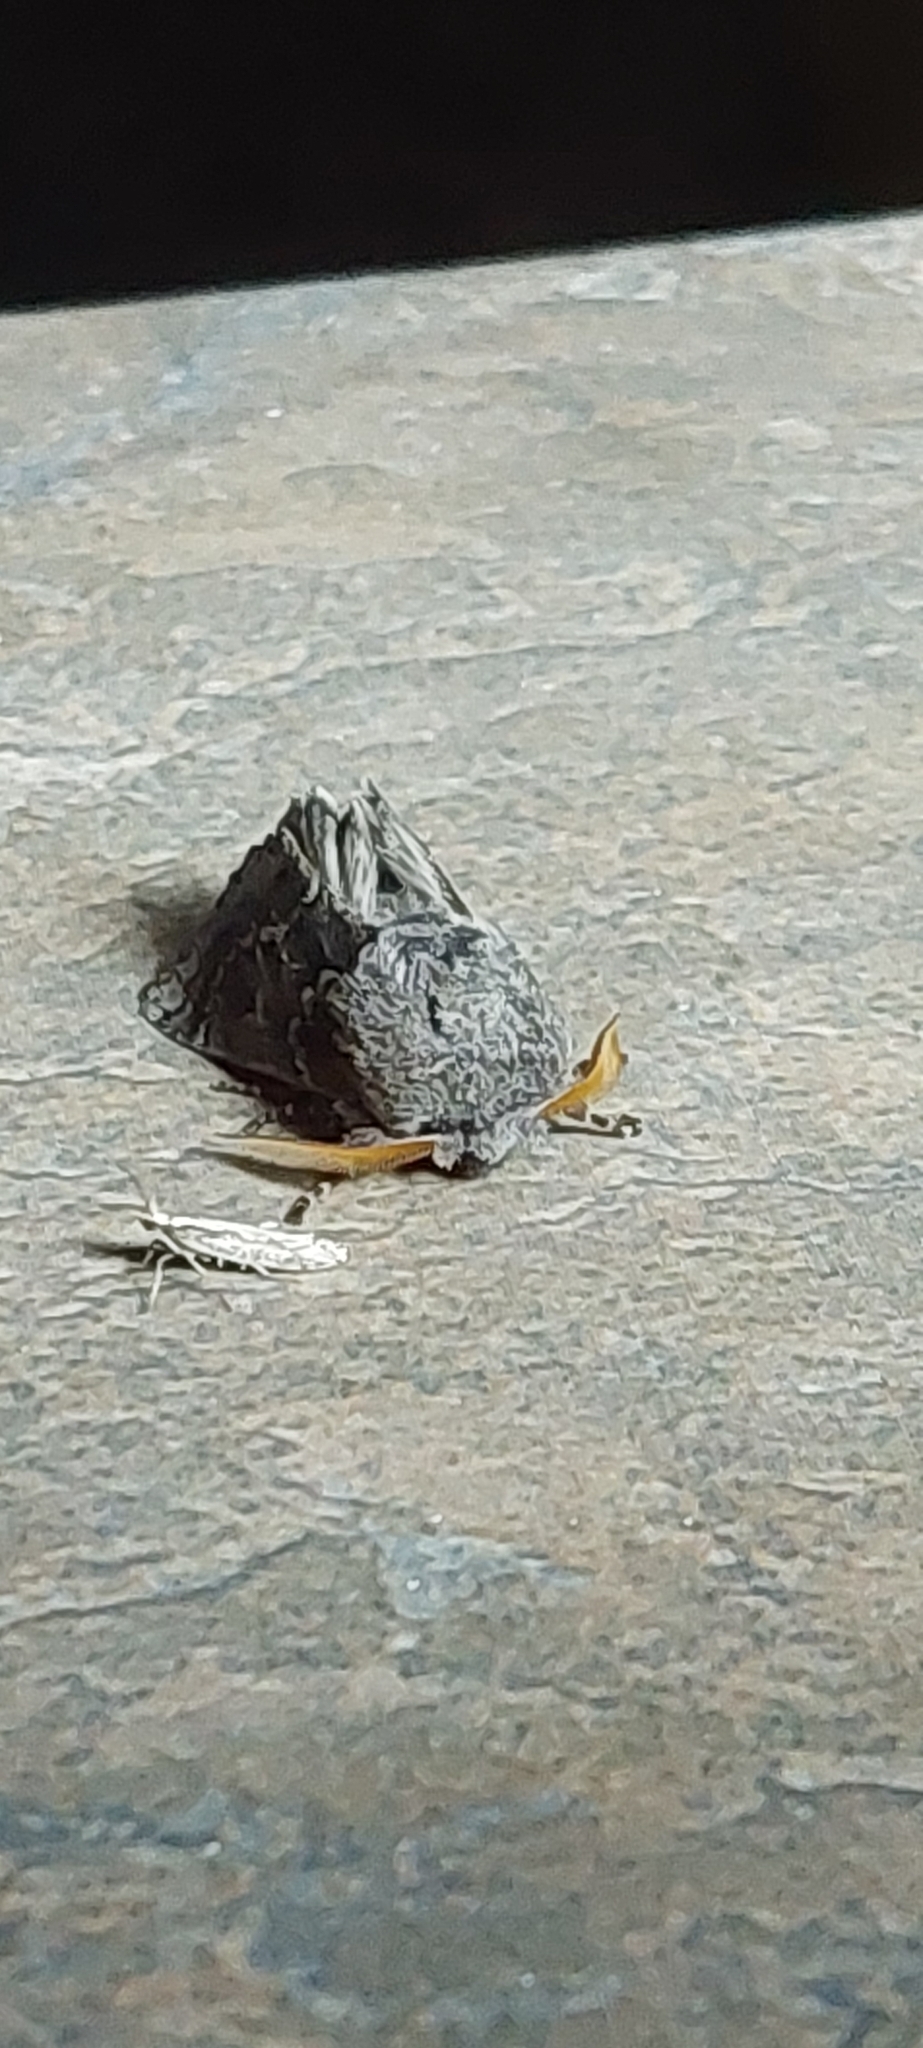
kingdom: Animalia
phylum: Arthropoda
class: Insecta
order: Lepidoptera
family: Notodontidae
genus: Neobourquinia
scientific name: Neobourquinia bifasciata
